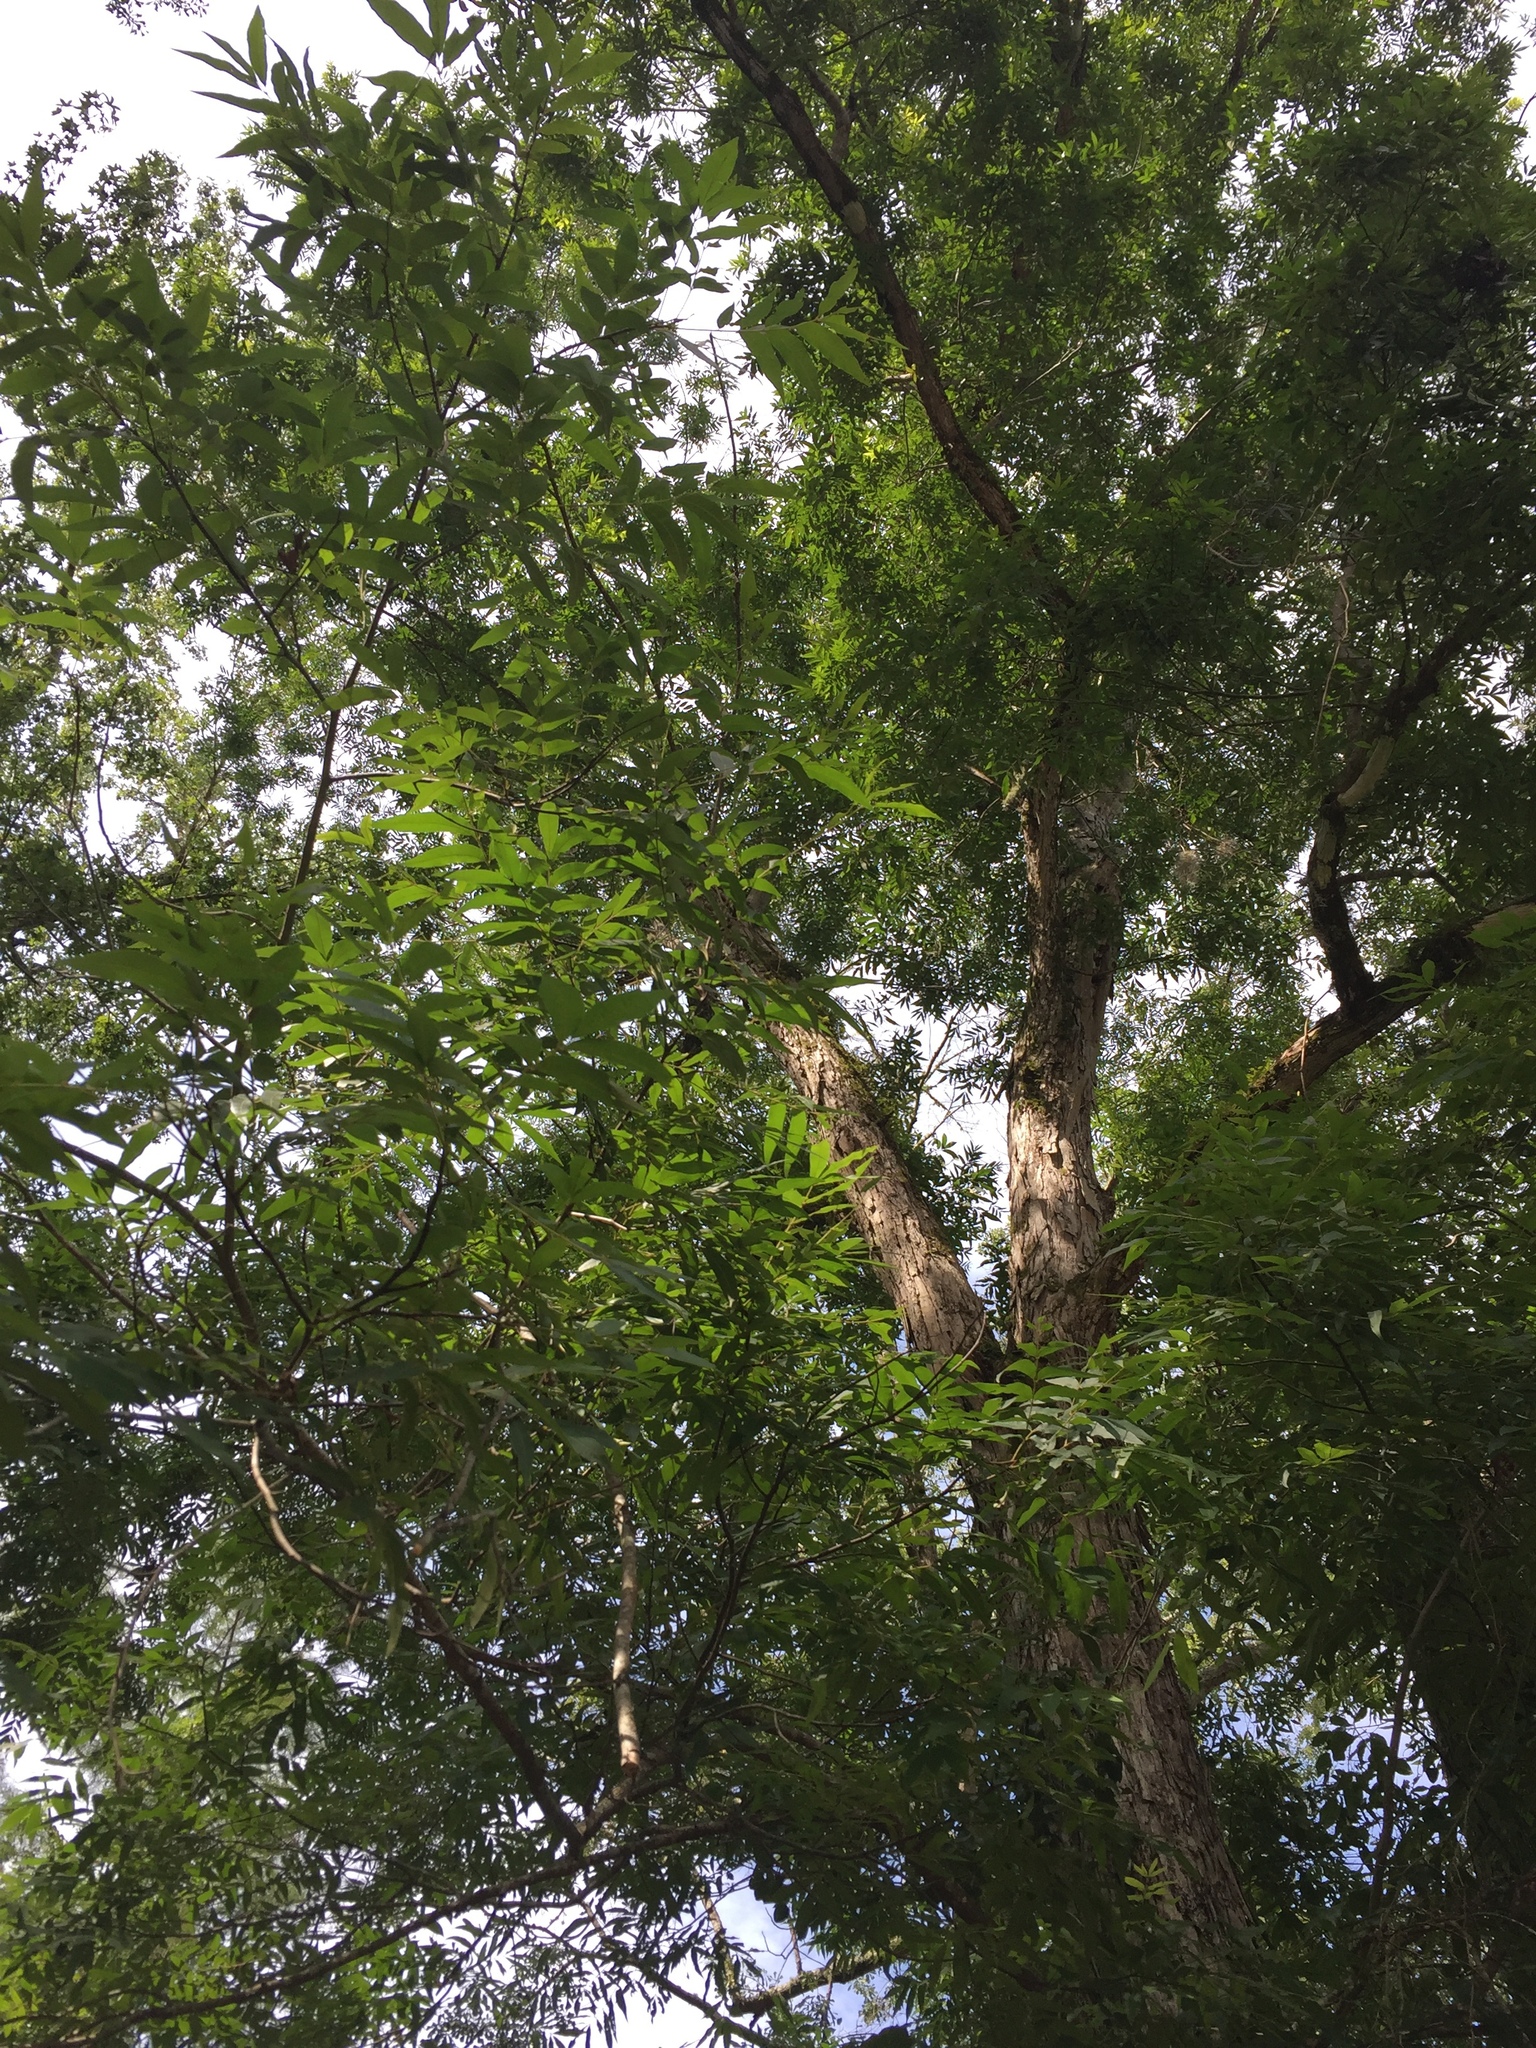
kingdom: Plantae
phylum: Tracheophyta
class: Magnoliopsida
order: Fagales
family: Juglandaceae
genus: Carya
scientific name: Carya aquatica
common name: Water hickory
